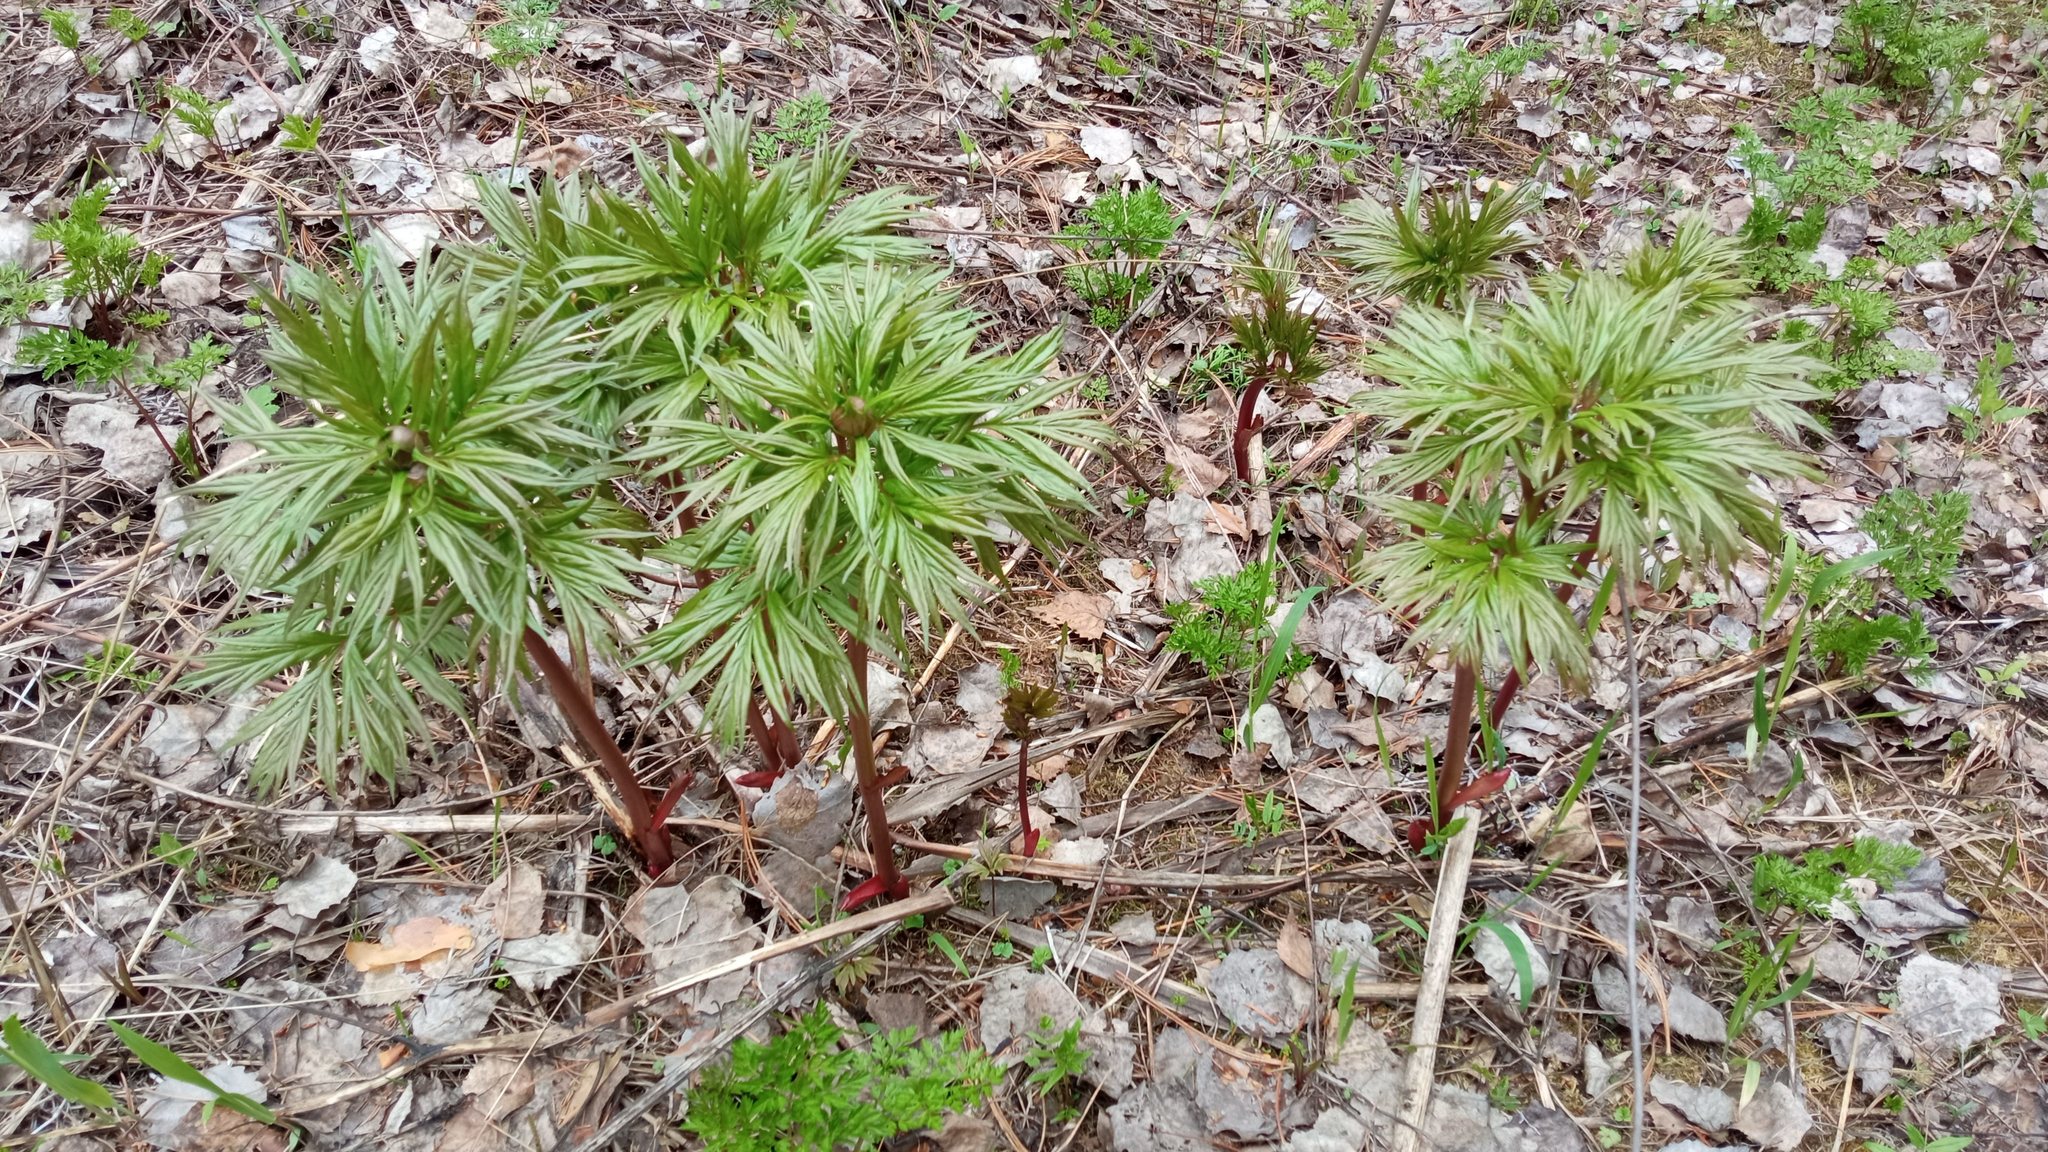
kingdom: Plantae
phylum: Tracheophyta
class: Magnoliopsida
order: Saxifragales
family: Paeoniaceae
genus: Paeonia
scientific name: Paeonia anomala
